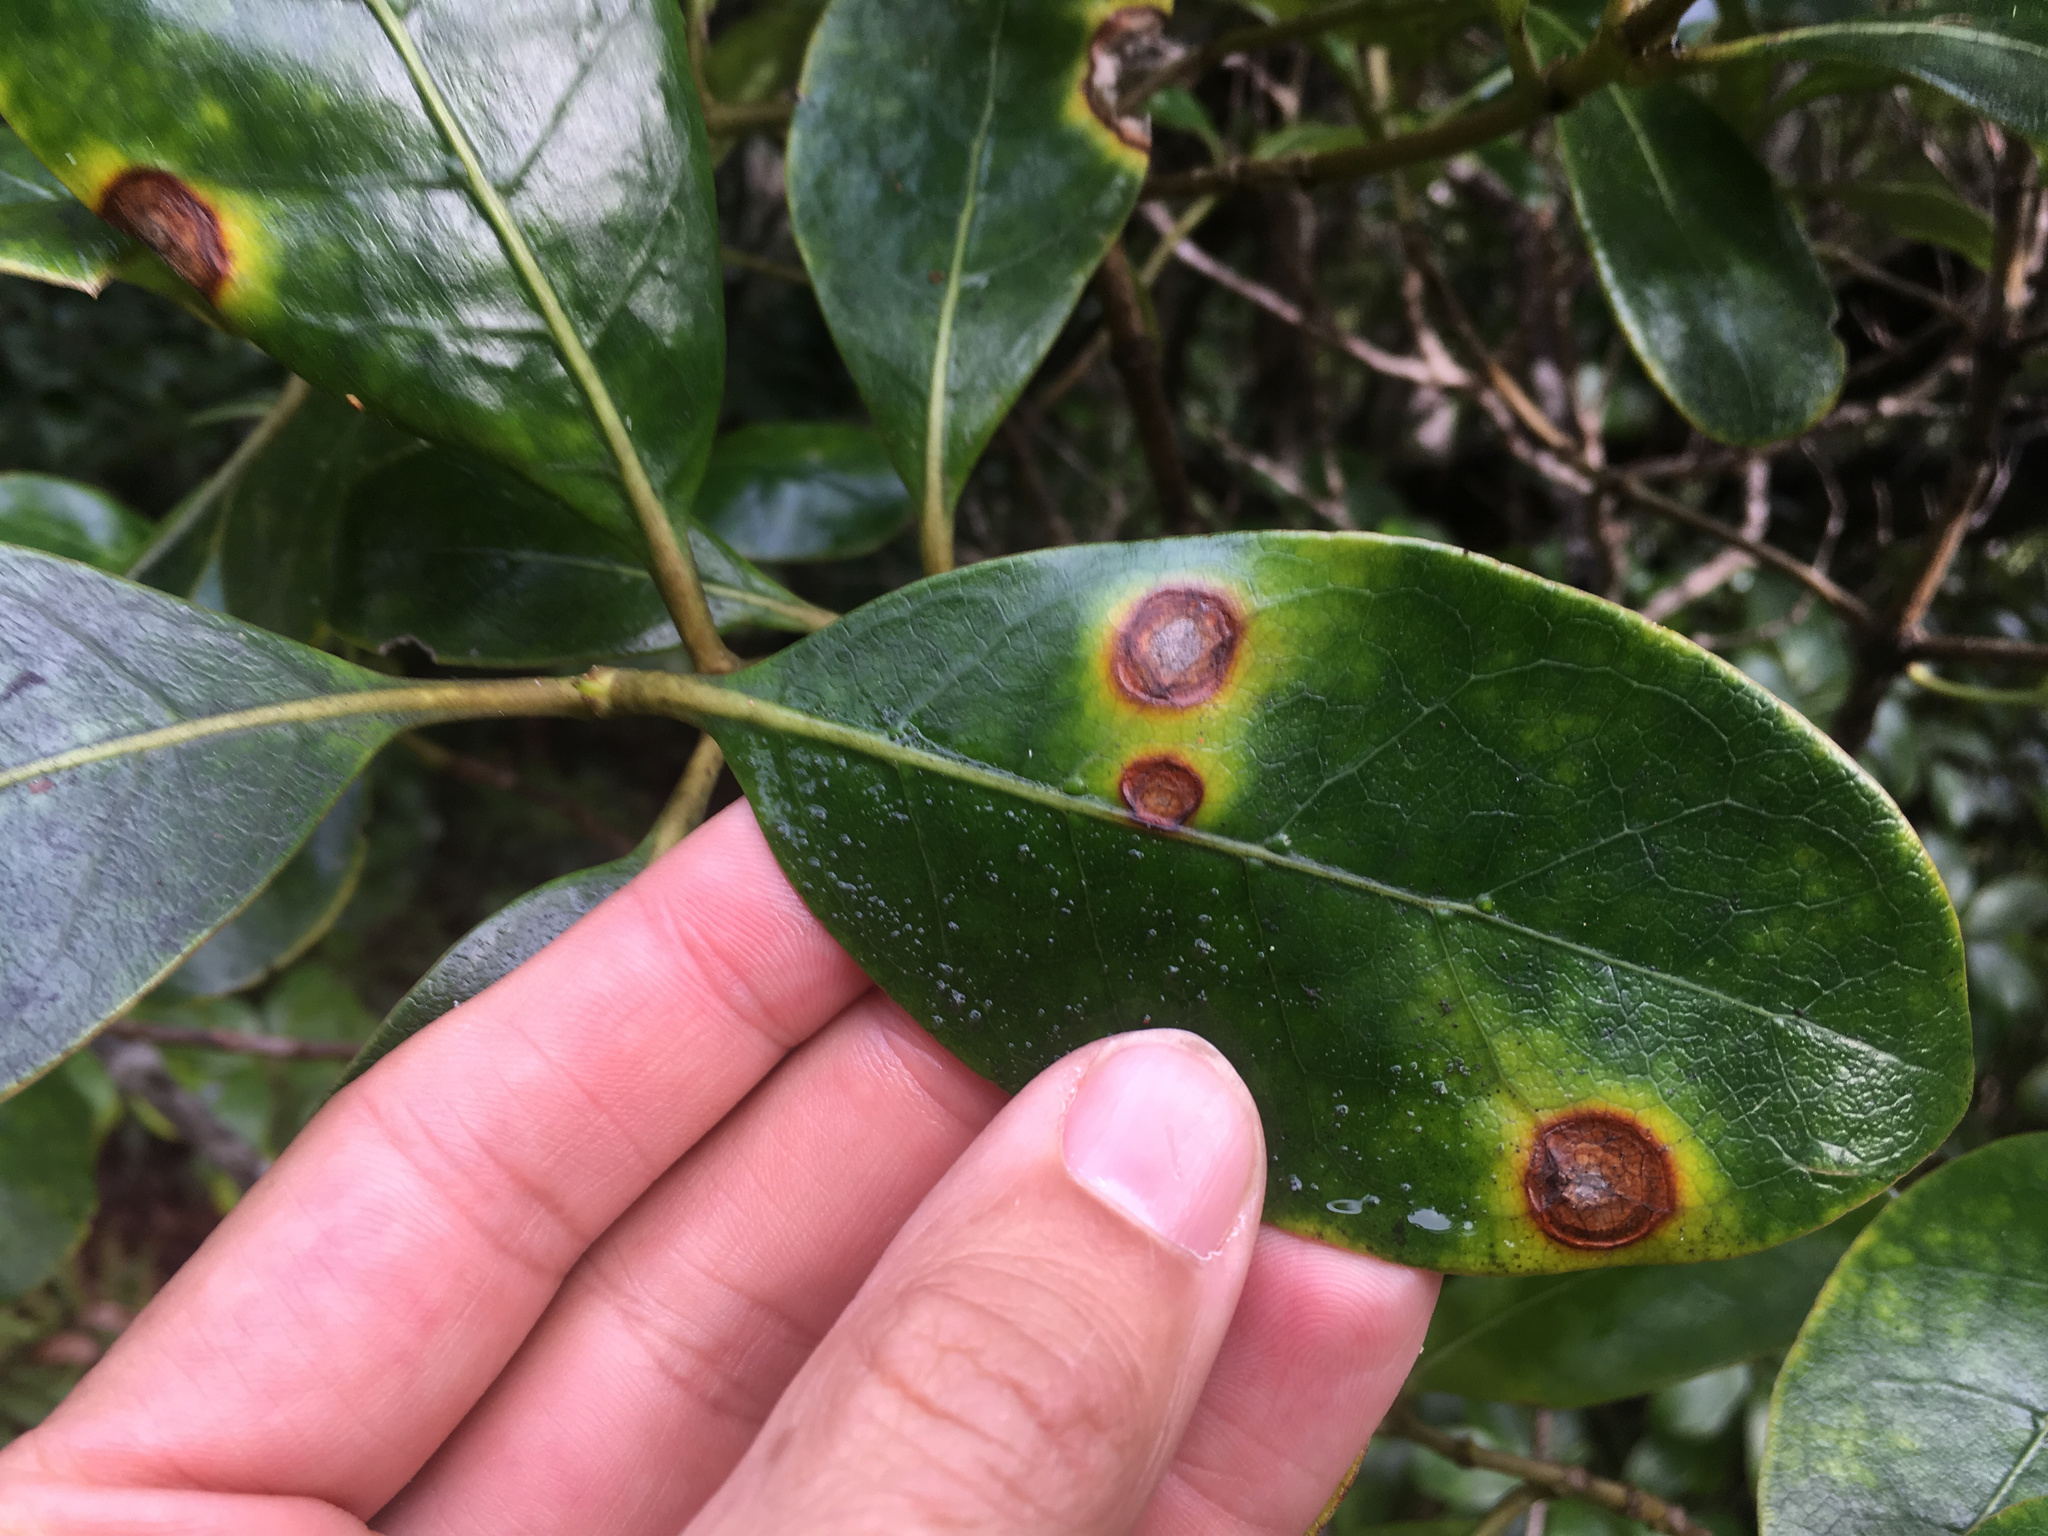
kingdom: Fungi
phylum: Basidiomycota
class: Pucciniomycetes
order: Pucciniales
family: Pucciniaceae
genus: Puccinia
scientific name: Puccinia coprosmae
